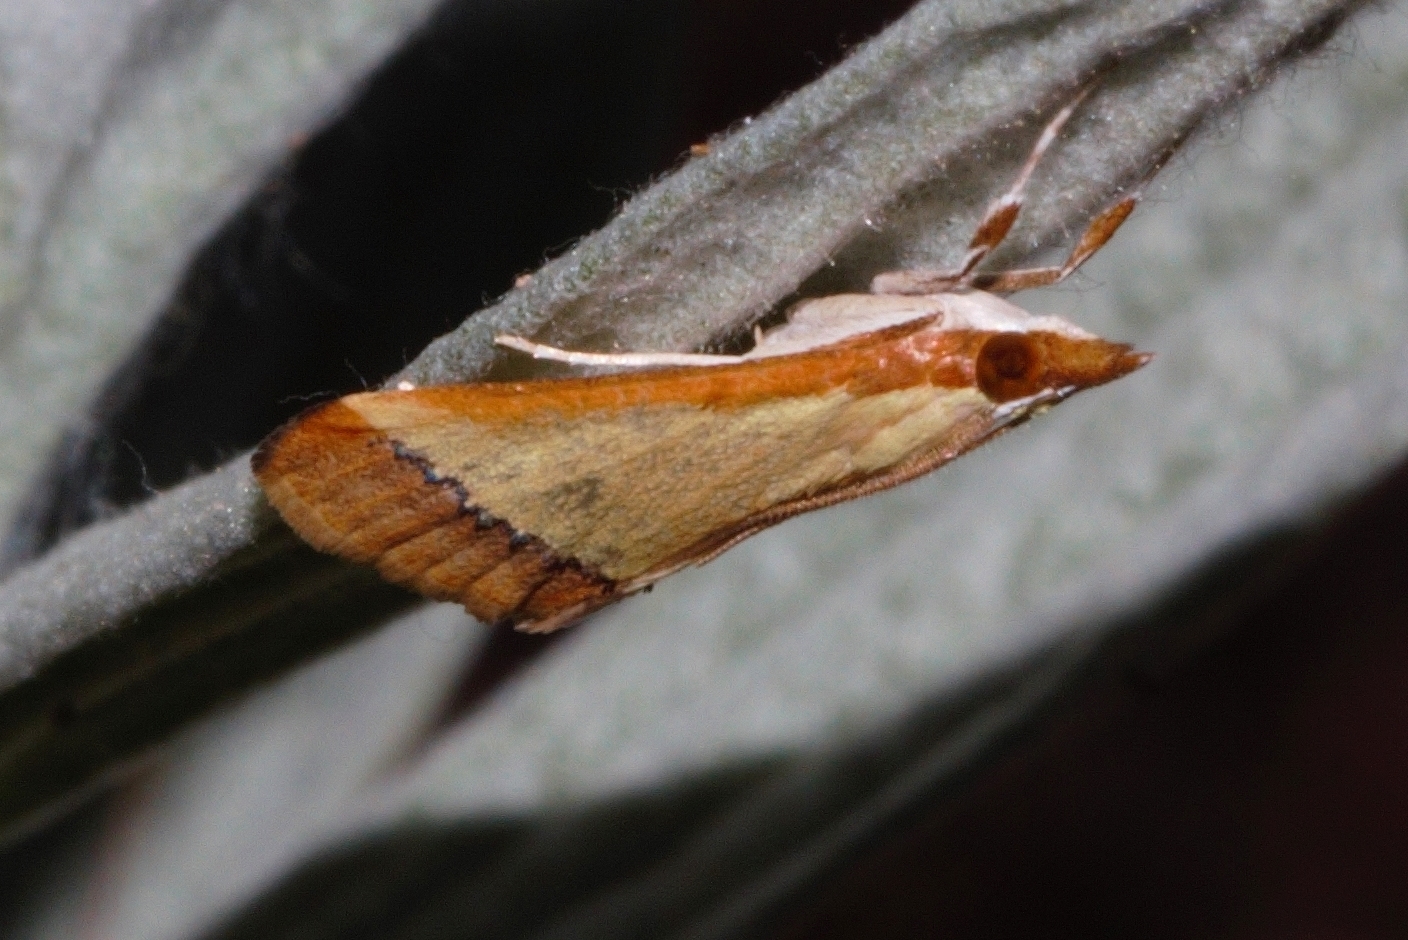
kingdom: Animalia
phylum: Arthropoda
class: Insecta
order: Lepidoptera
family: Crambidae
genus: Autocharis
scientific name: Autocharis fessalis
